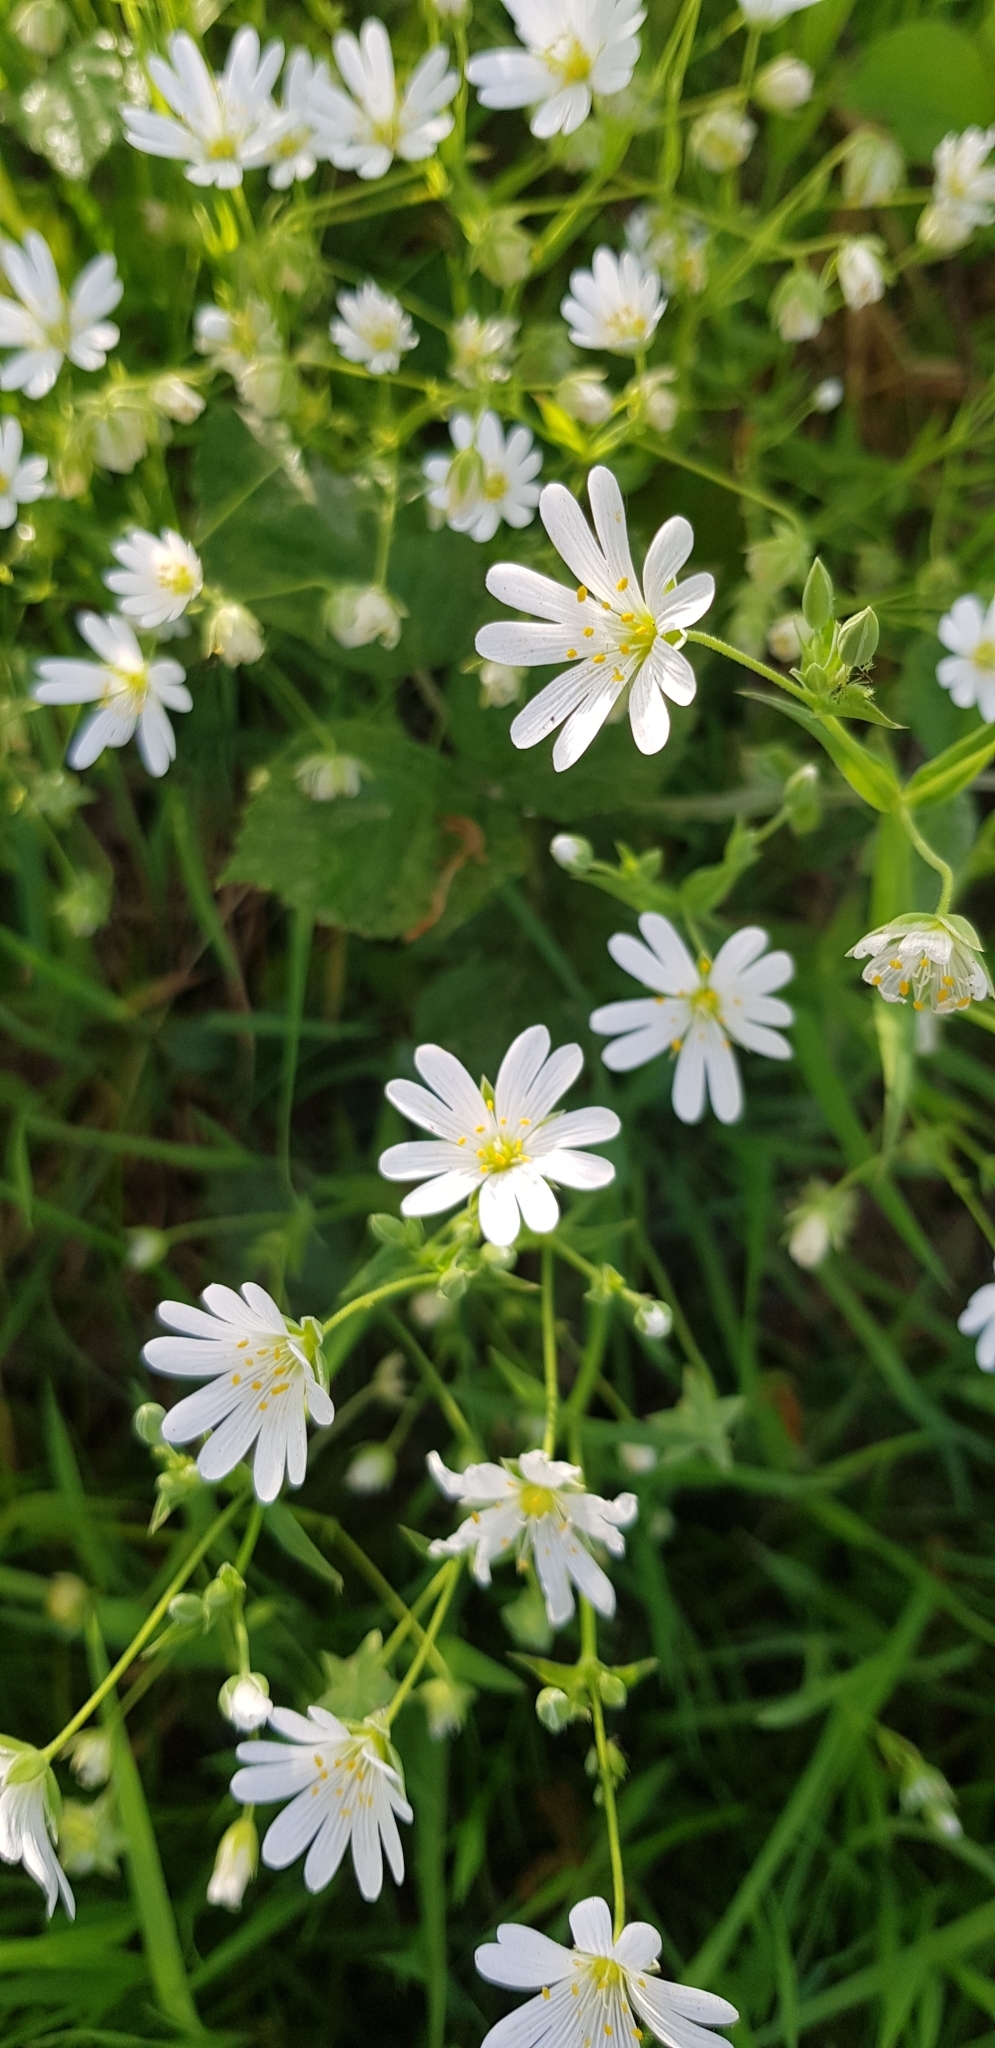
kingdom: Plantae
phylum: Tracheophyta
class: Magnoliopsida
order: Caryophyllales
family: Caryophyllaceae
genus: Rabelera
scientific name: Rabelera holostea
